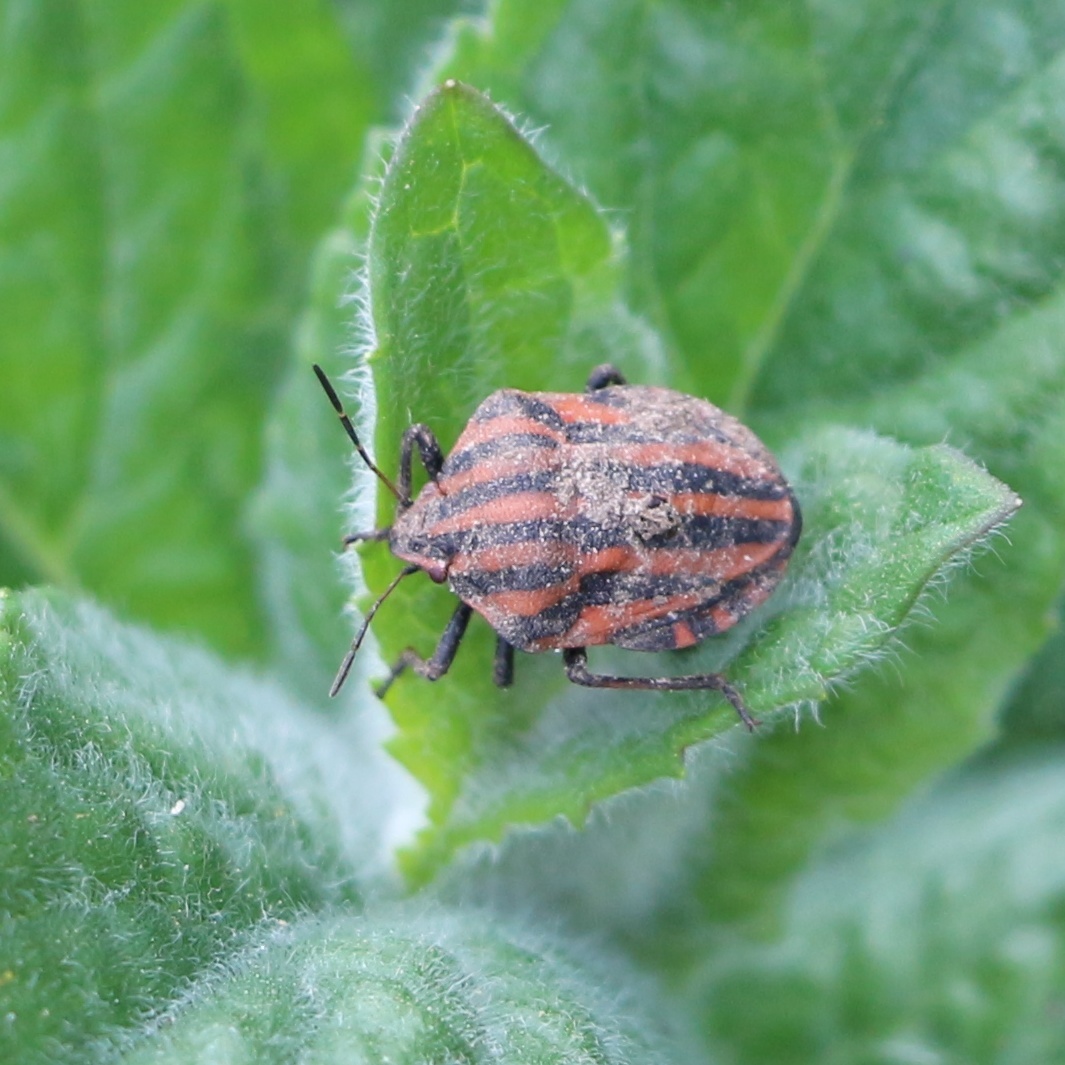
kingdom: Animalia
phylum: Arthropoda
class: Insecta
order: Hemiptera
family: Pentatomidae
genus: Graphosoma
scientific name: Graphosoma italicum
